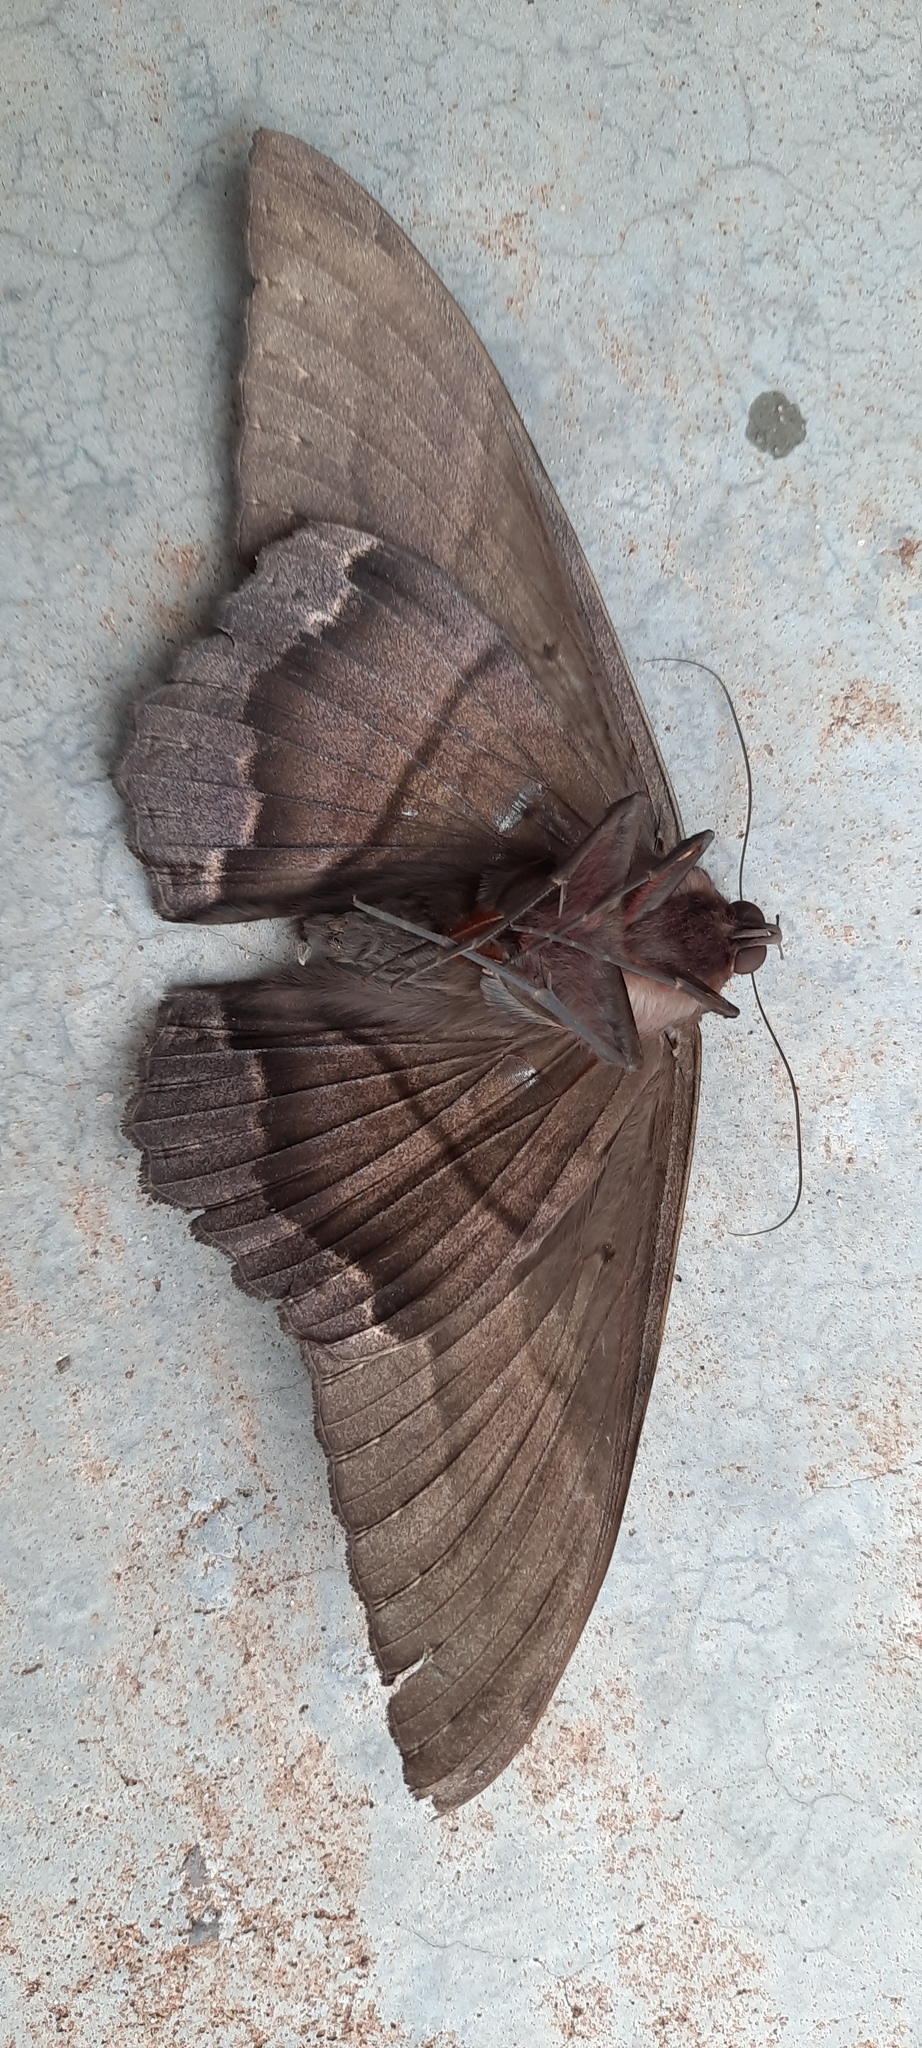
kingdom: Animalia
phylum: Arthropoda
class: Insecta
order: Lepidoptera
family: Erebidae
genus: Ascalapha
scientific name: Ascalapha odorata
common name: Black witch
